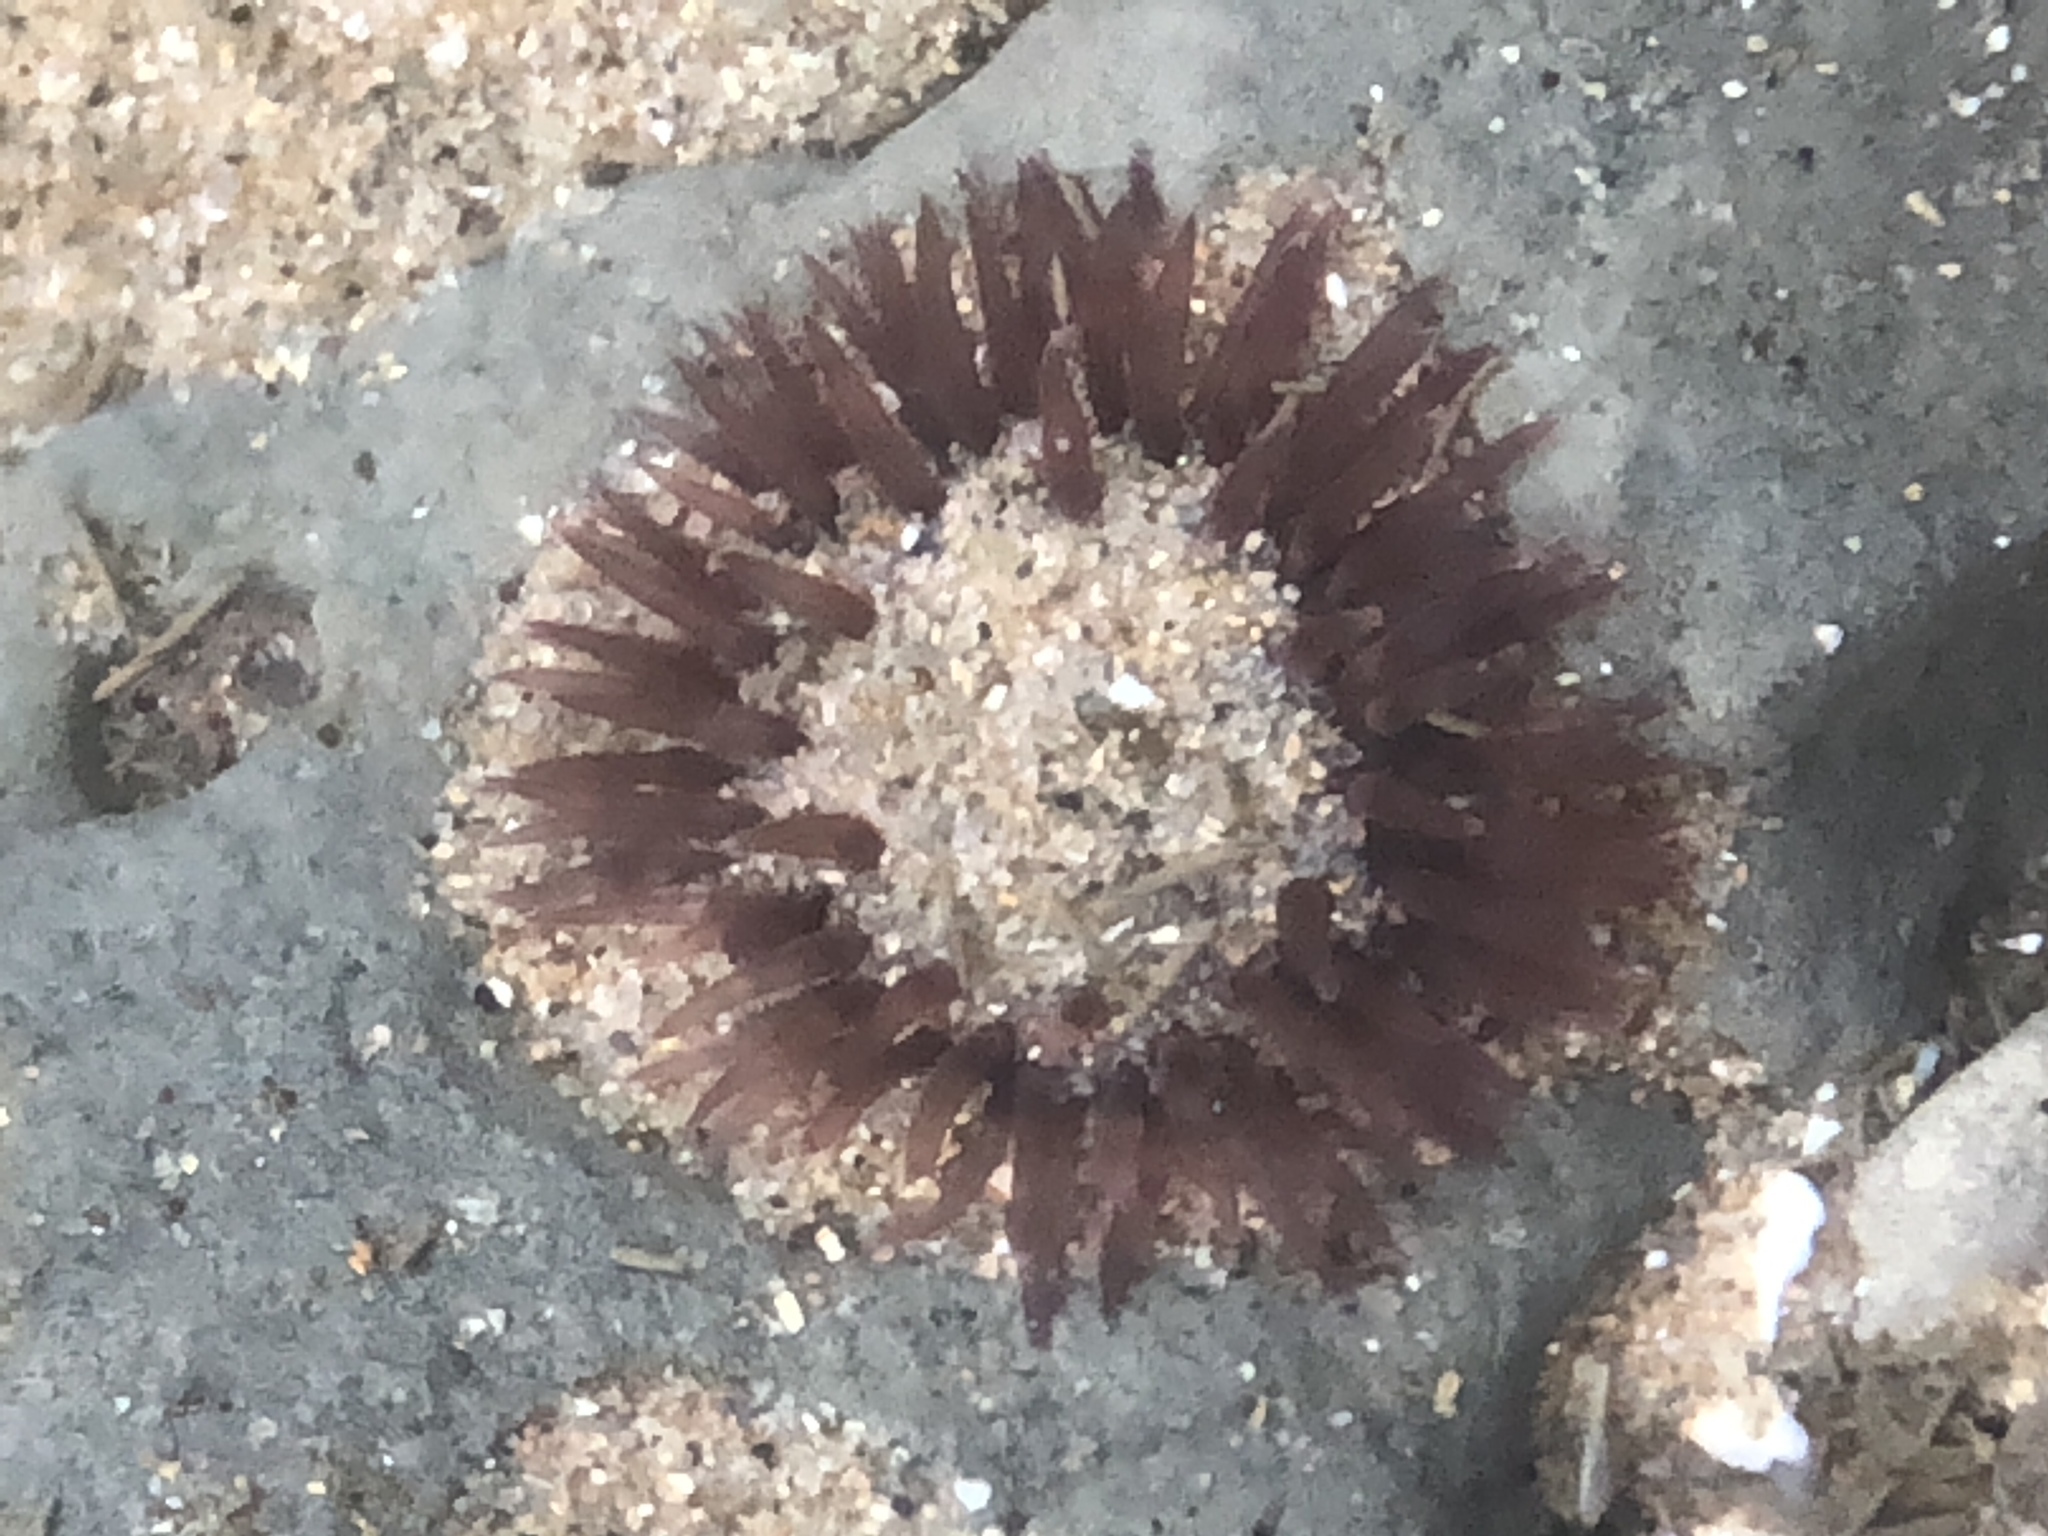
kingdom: Animalia
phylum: Cnidaria
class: Anthozoa
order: Actiniaria
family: Actiniidae
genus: Anthopleura
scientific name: Anthopleura artemisia
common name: Buried sea anemone
